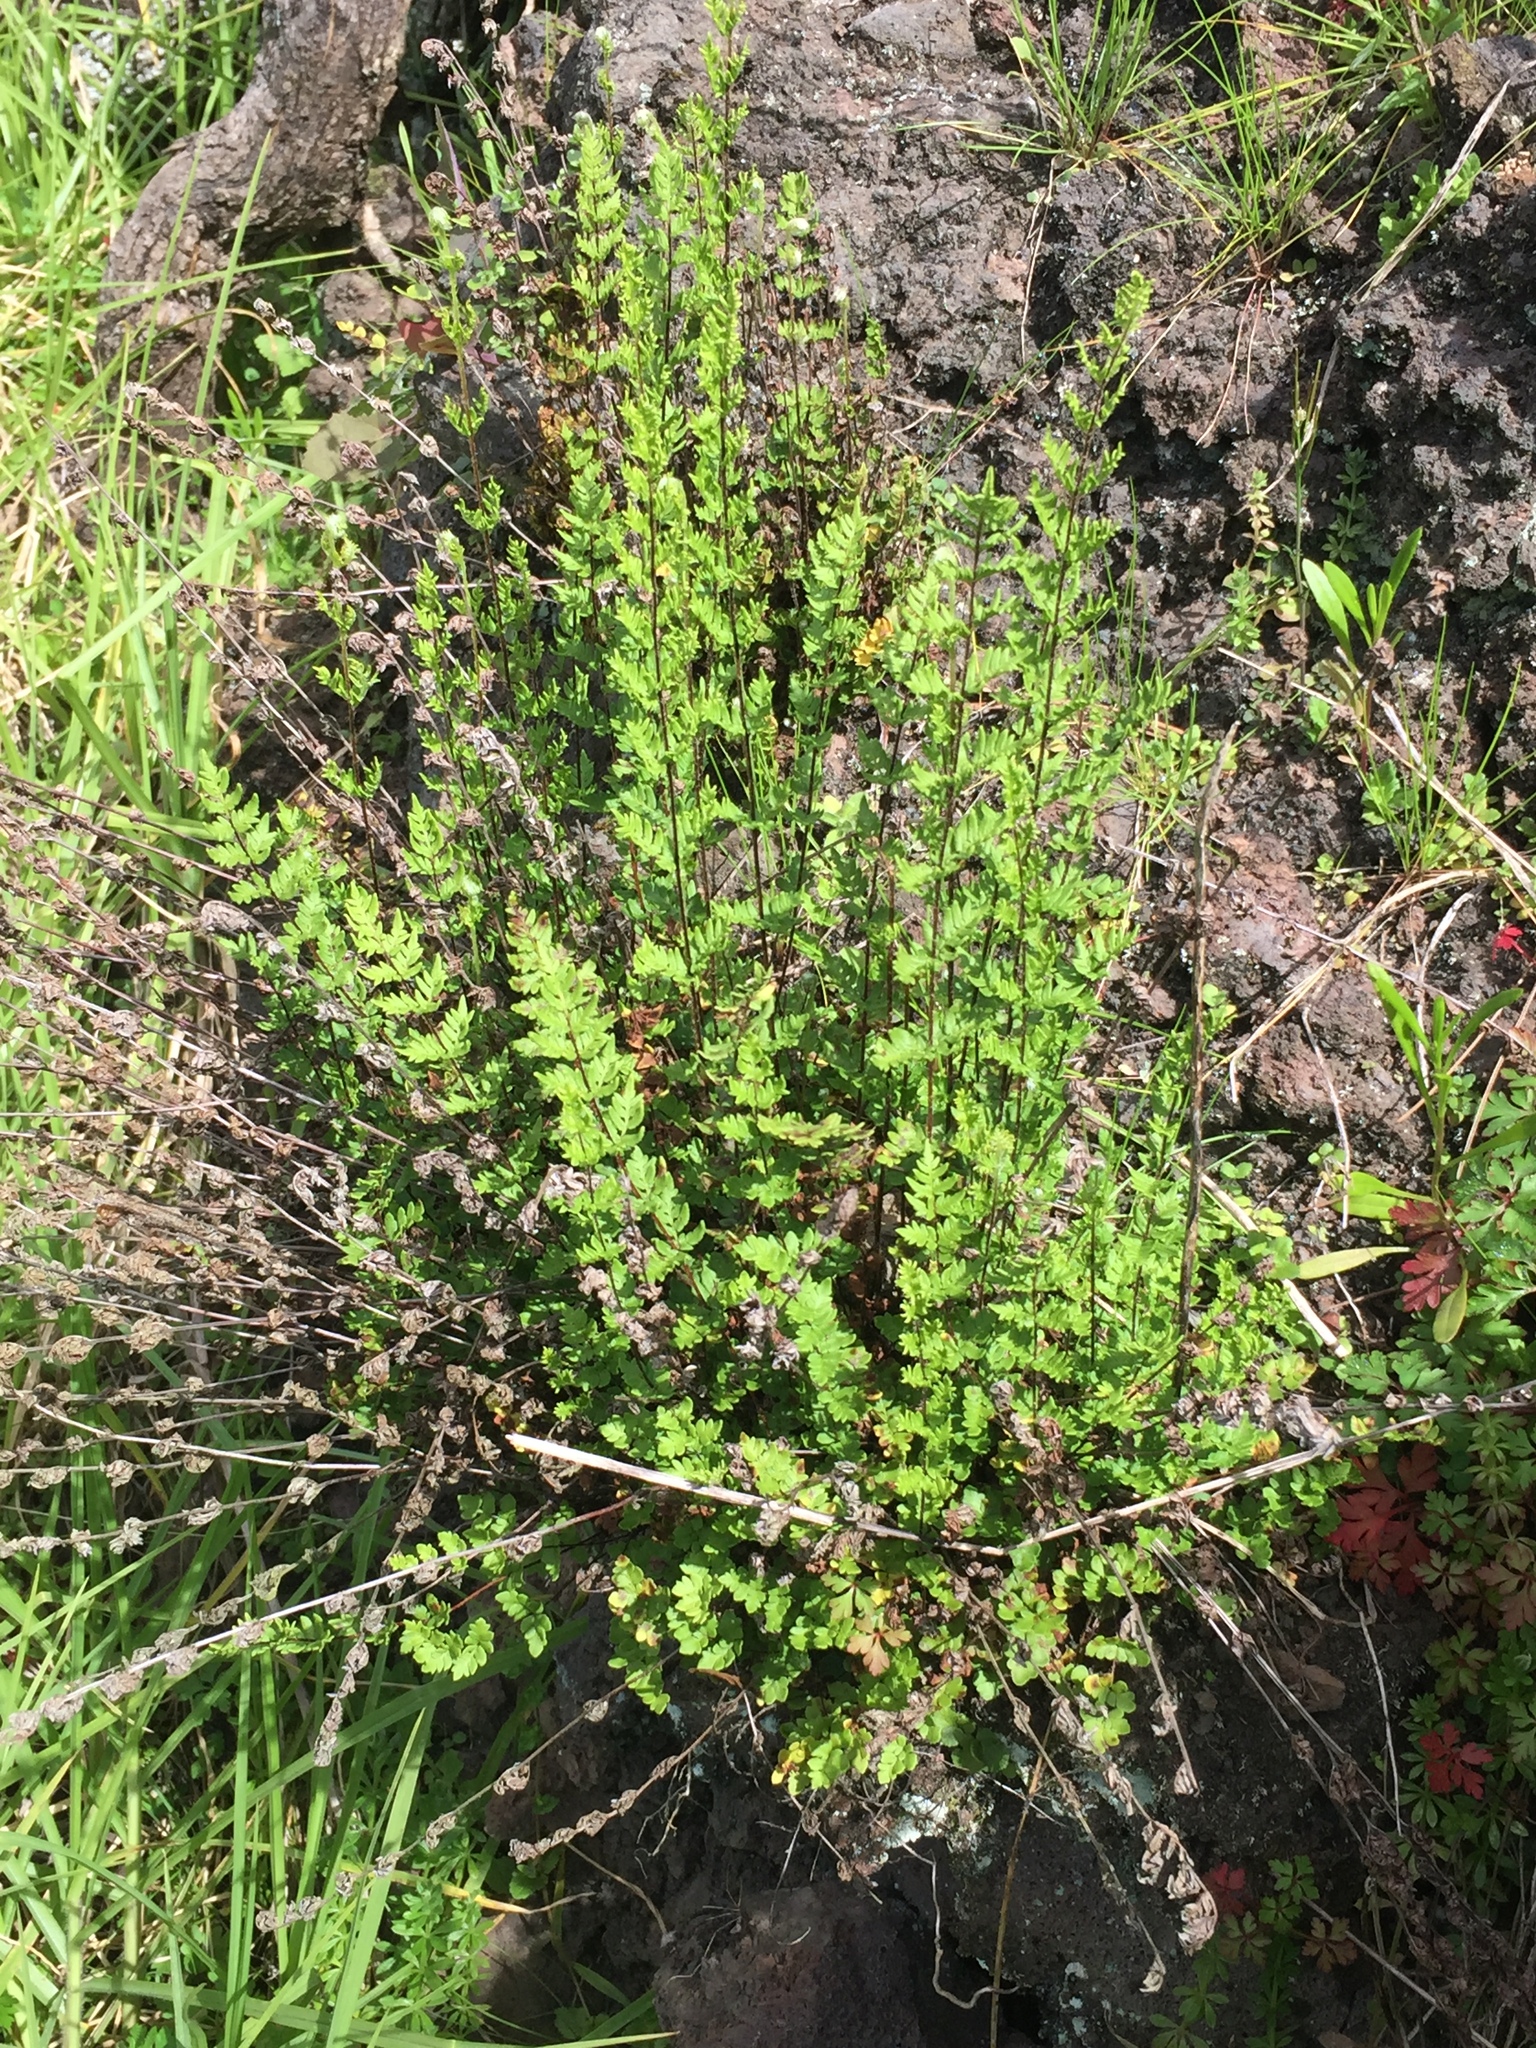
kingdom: Plantae
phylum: Tracheophyta
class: Polypodiopsida
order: Polypodiales
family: Pteridaceae
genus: Cheilanthes
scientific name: Cheilanthes distans
